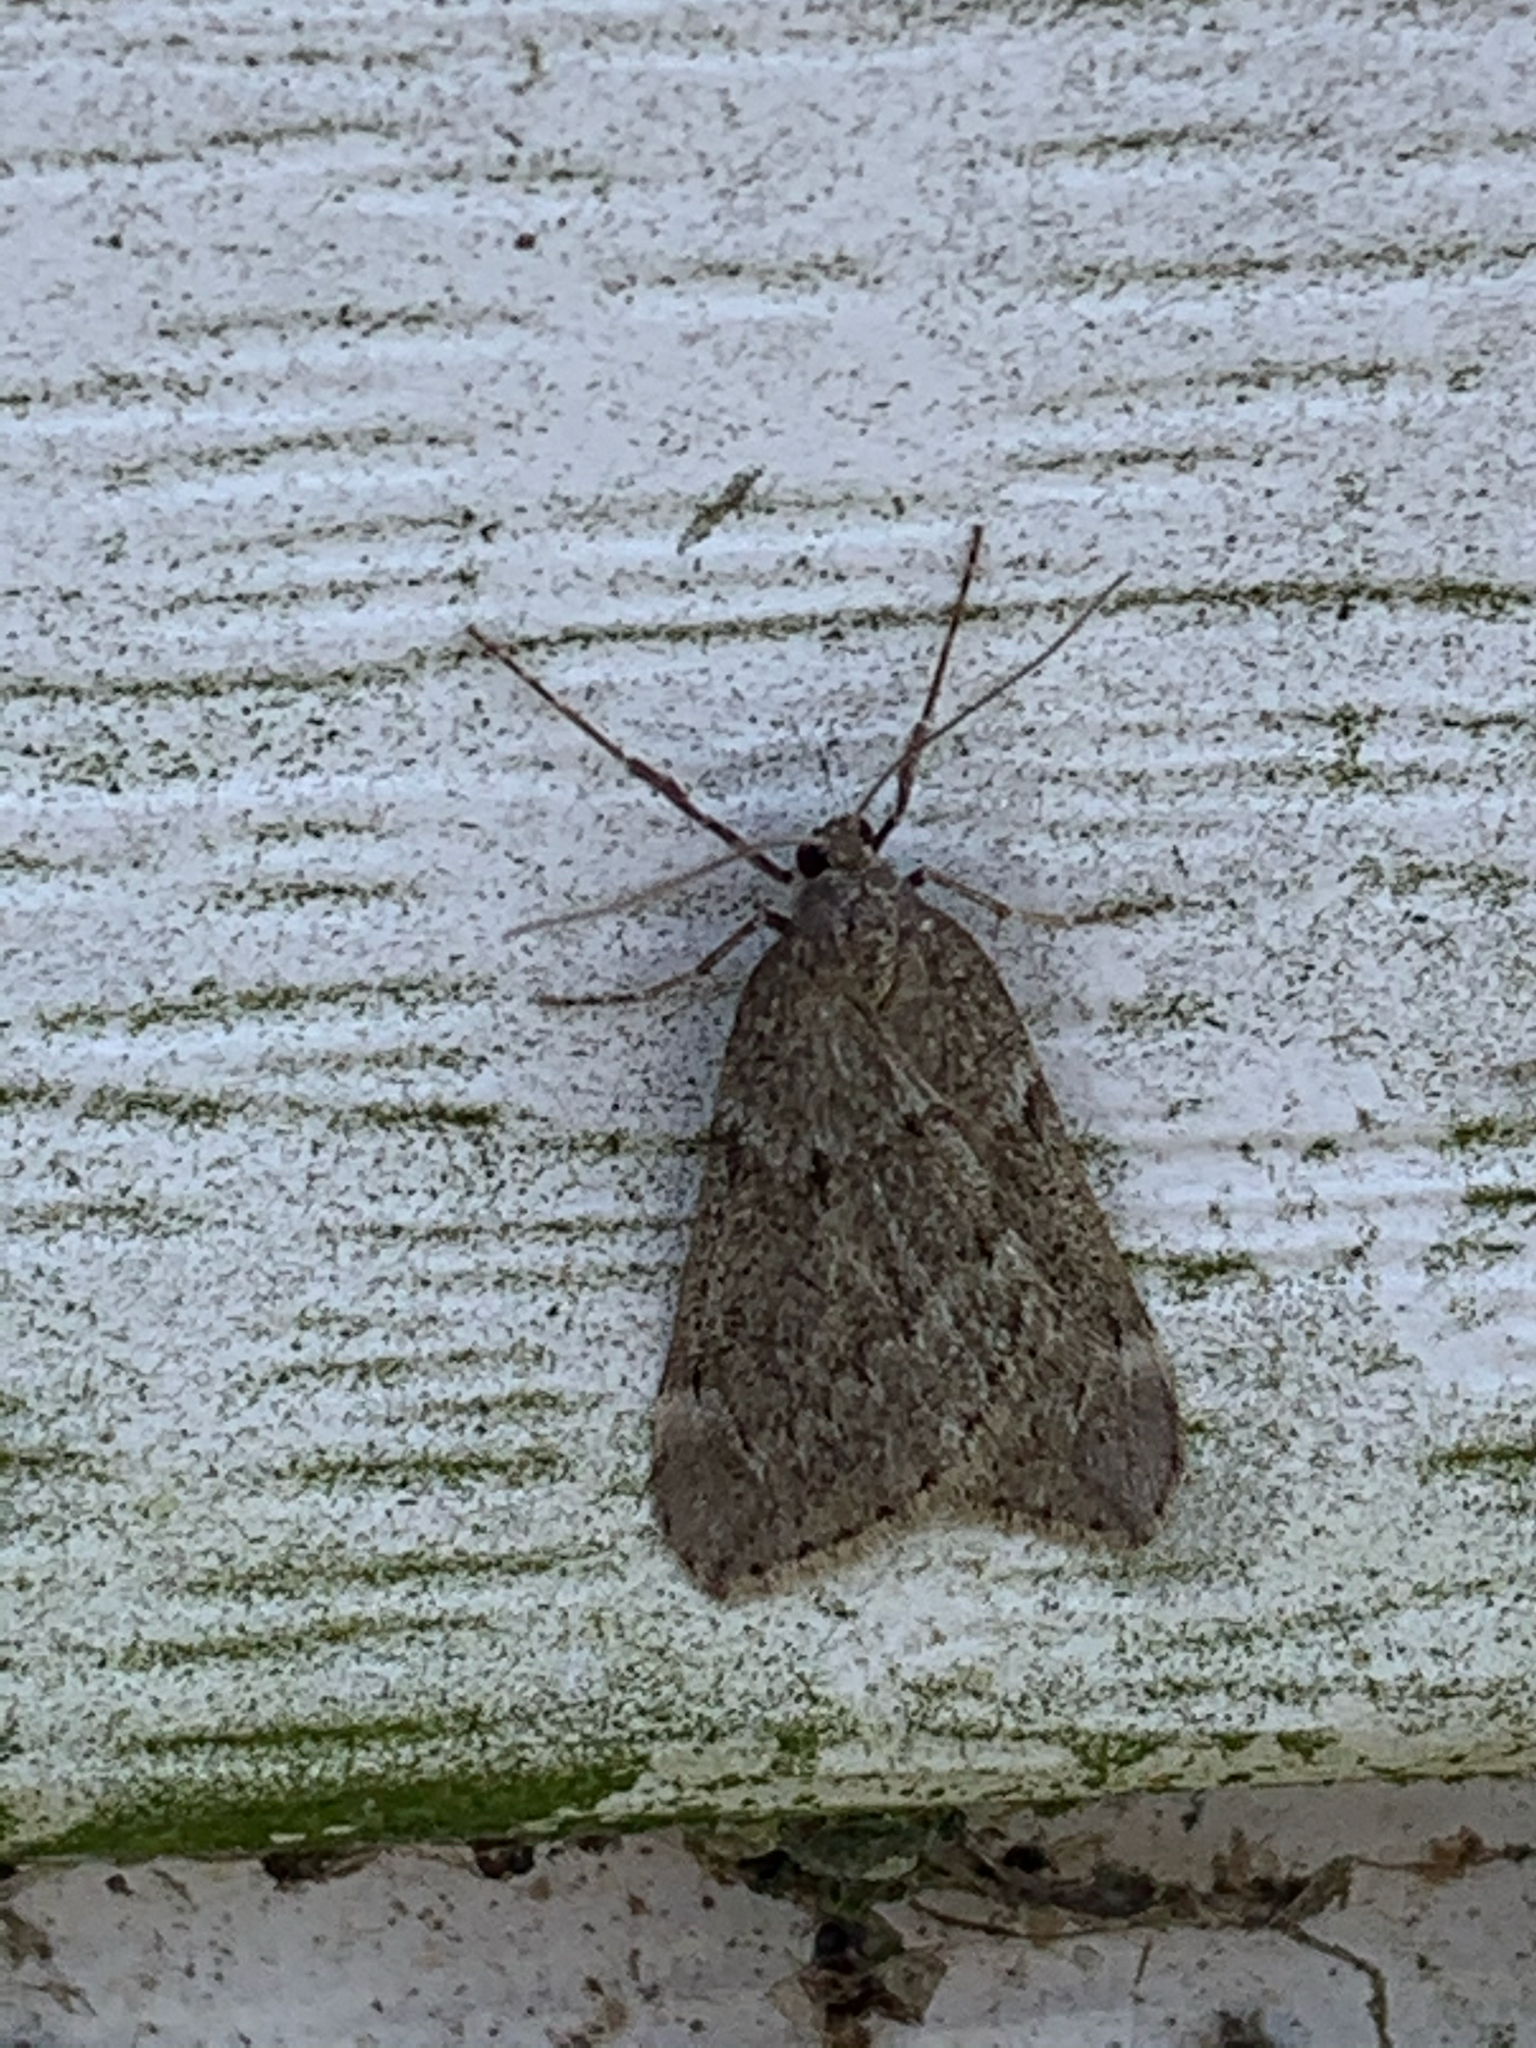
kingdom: Animalia
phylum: Arthropoda
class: Insecta
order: Lepidoptera
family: Geometridae
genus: Alsophila
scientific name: Alsophila pometaria
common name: Fall cankerworm
